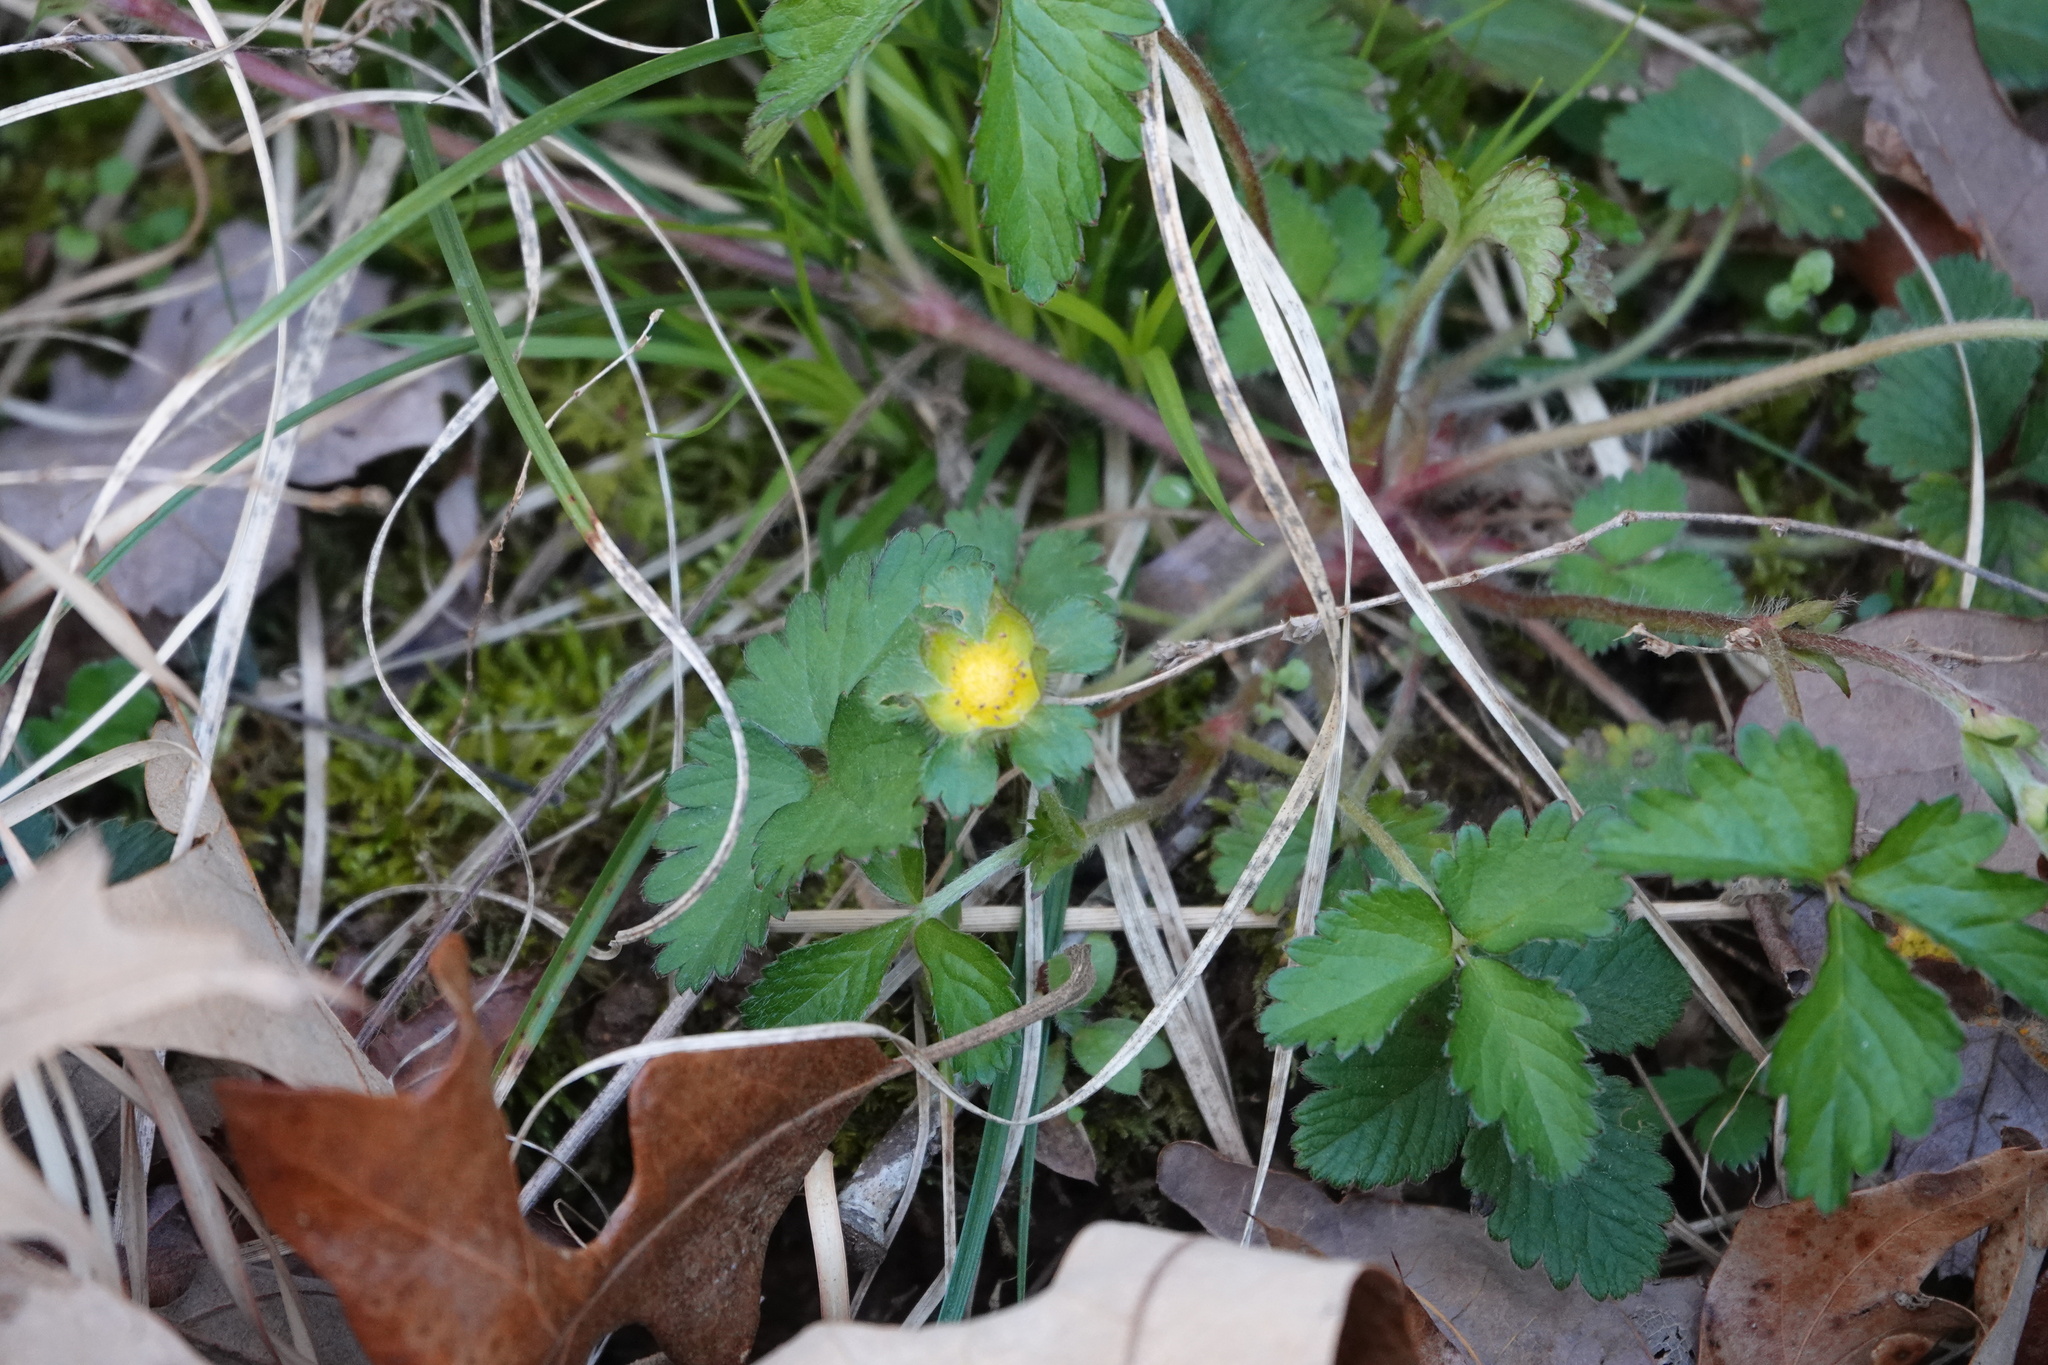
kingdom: Plantae
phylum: Tracheophyta
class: Magnoliopsida
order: Rosales
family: Rosaceae
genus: Potentilla
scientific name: Potentilla indica
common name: Yellow-flowered strawberry
